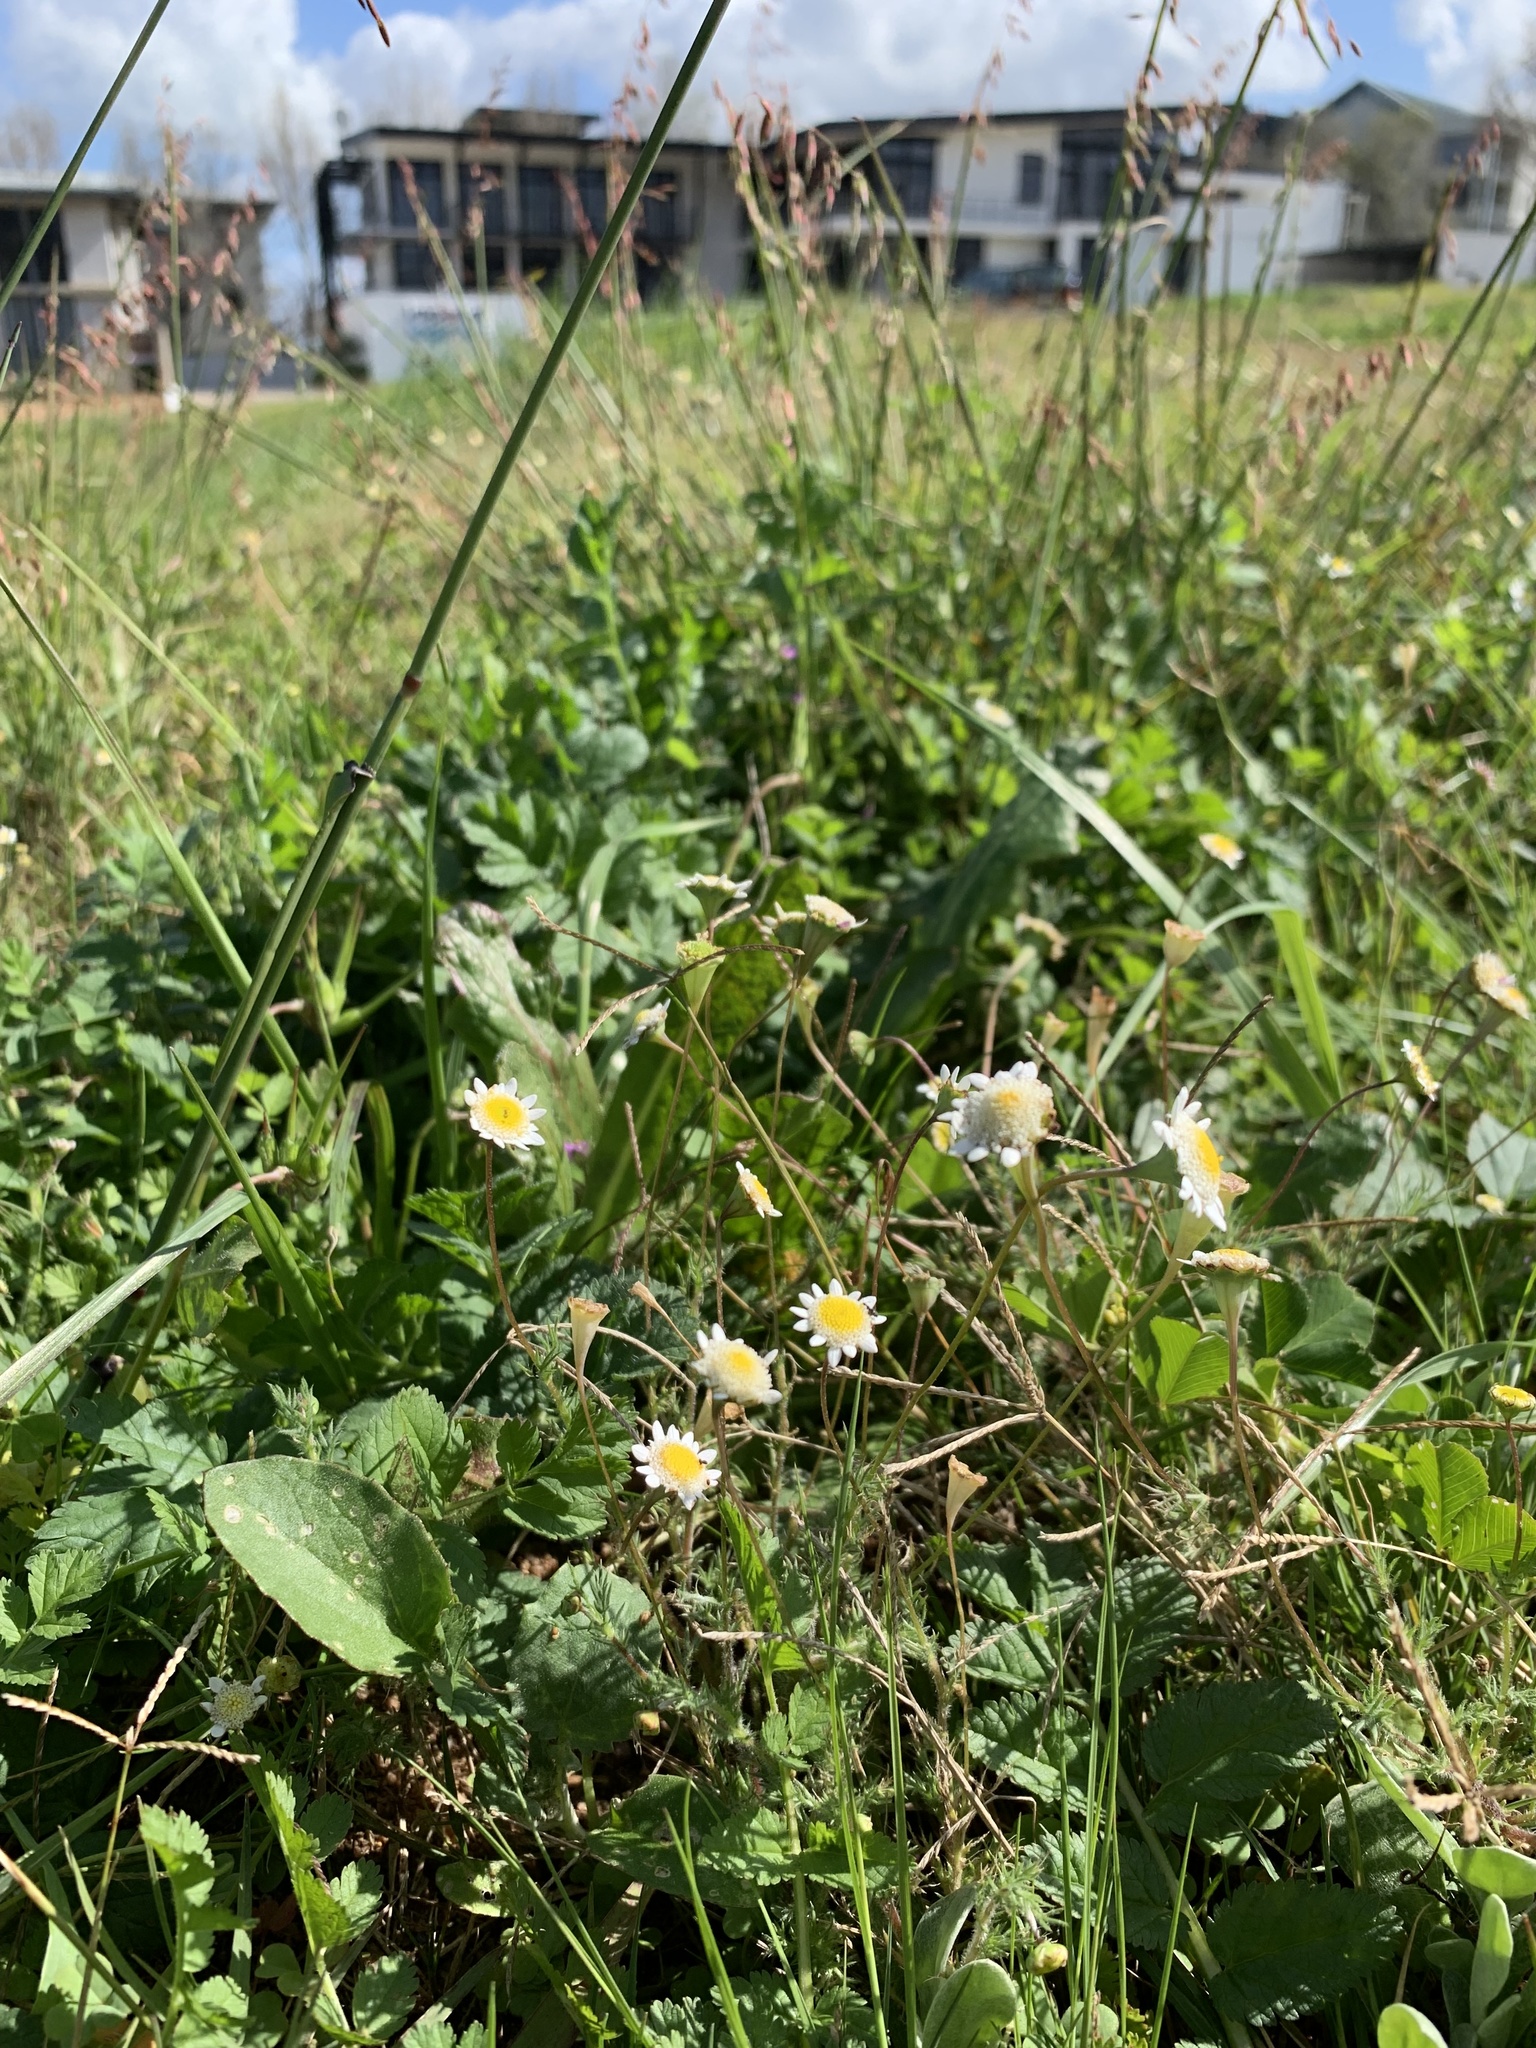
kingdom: Plantae
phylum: Tracheophyta
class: Magnoliopsida
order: Asterales
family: Asteraceae
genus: Cotula
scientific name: Cotula turbinata
